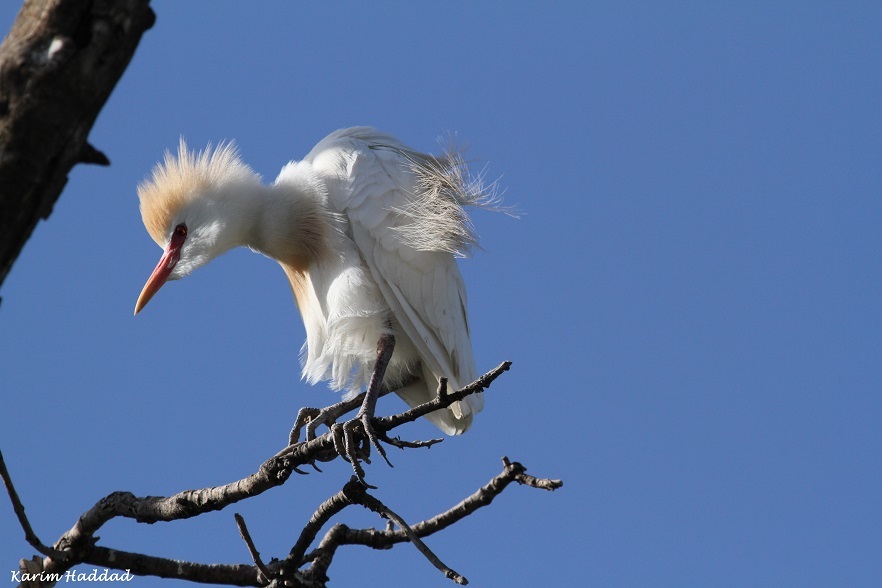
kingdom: Animalia
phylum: Chordata
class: Aves
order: Pelecaniformes
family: Ardeidae
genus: Bubulcus
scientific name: Bubulcus ibis
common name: Cattle egret
